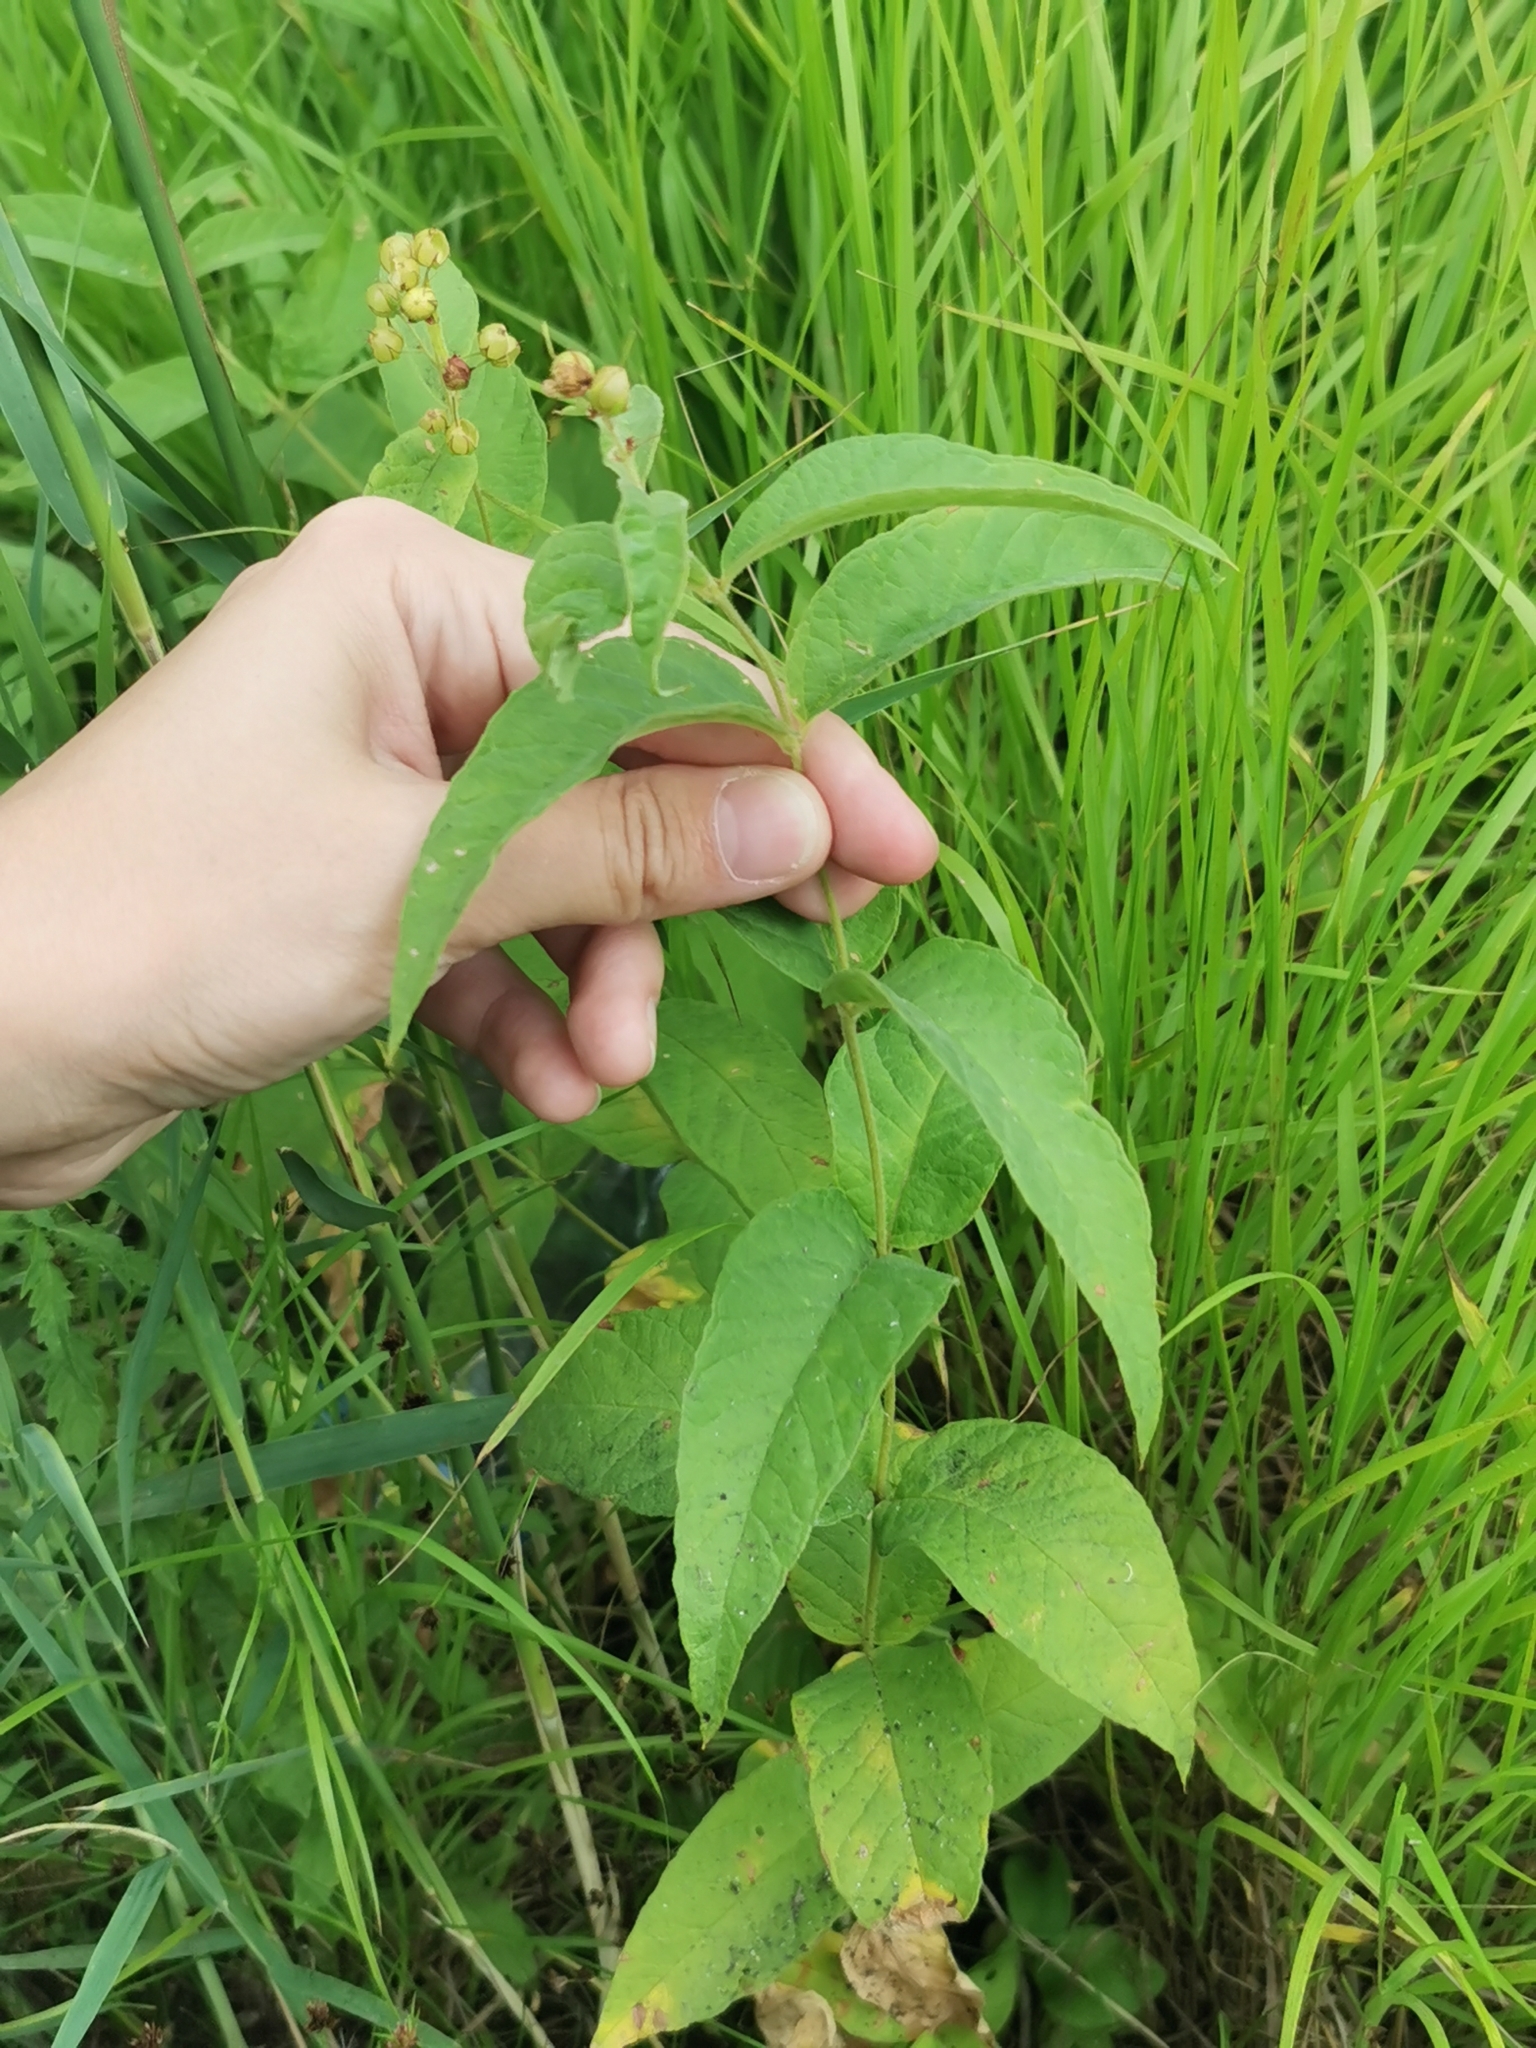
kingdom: Plantae
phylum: Tracheophyta
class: Magnoliopsida
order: Ericales
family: Primulaceae
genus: Lysimachia
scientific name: Lysimachia vulgaris
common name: Yellow loosestrife
